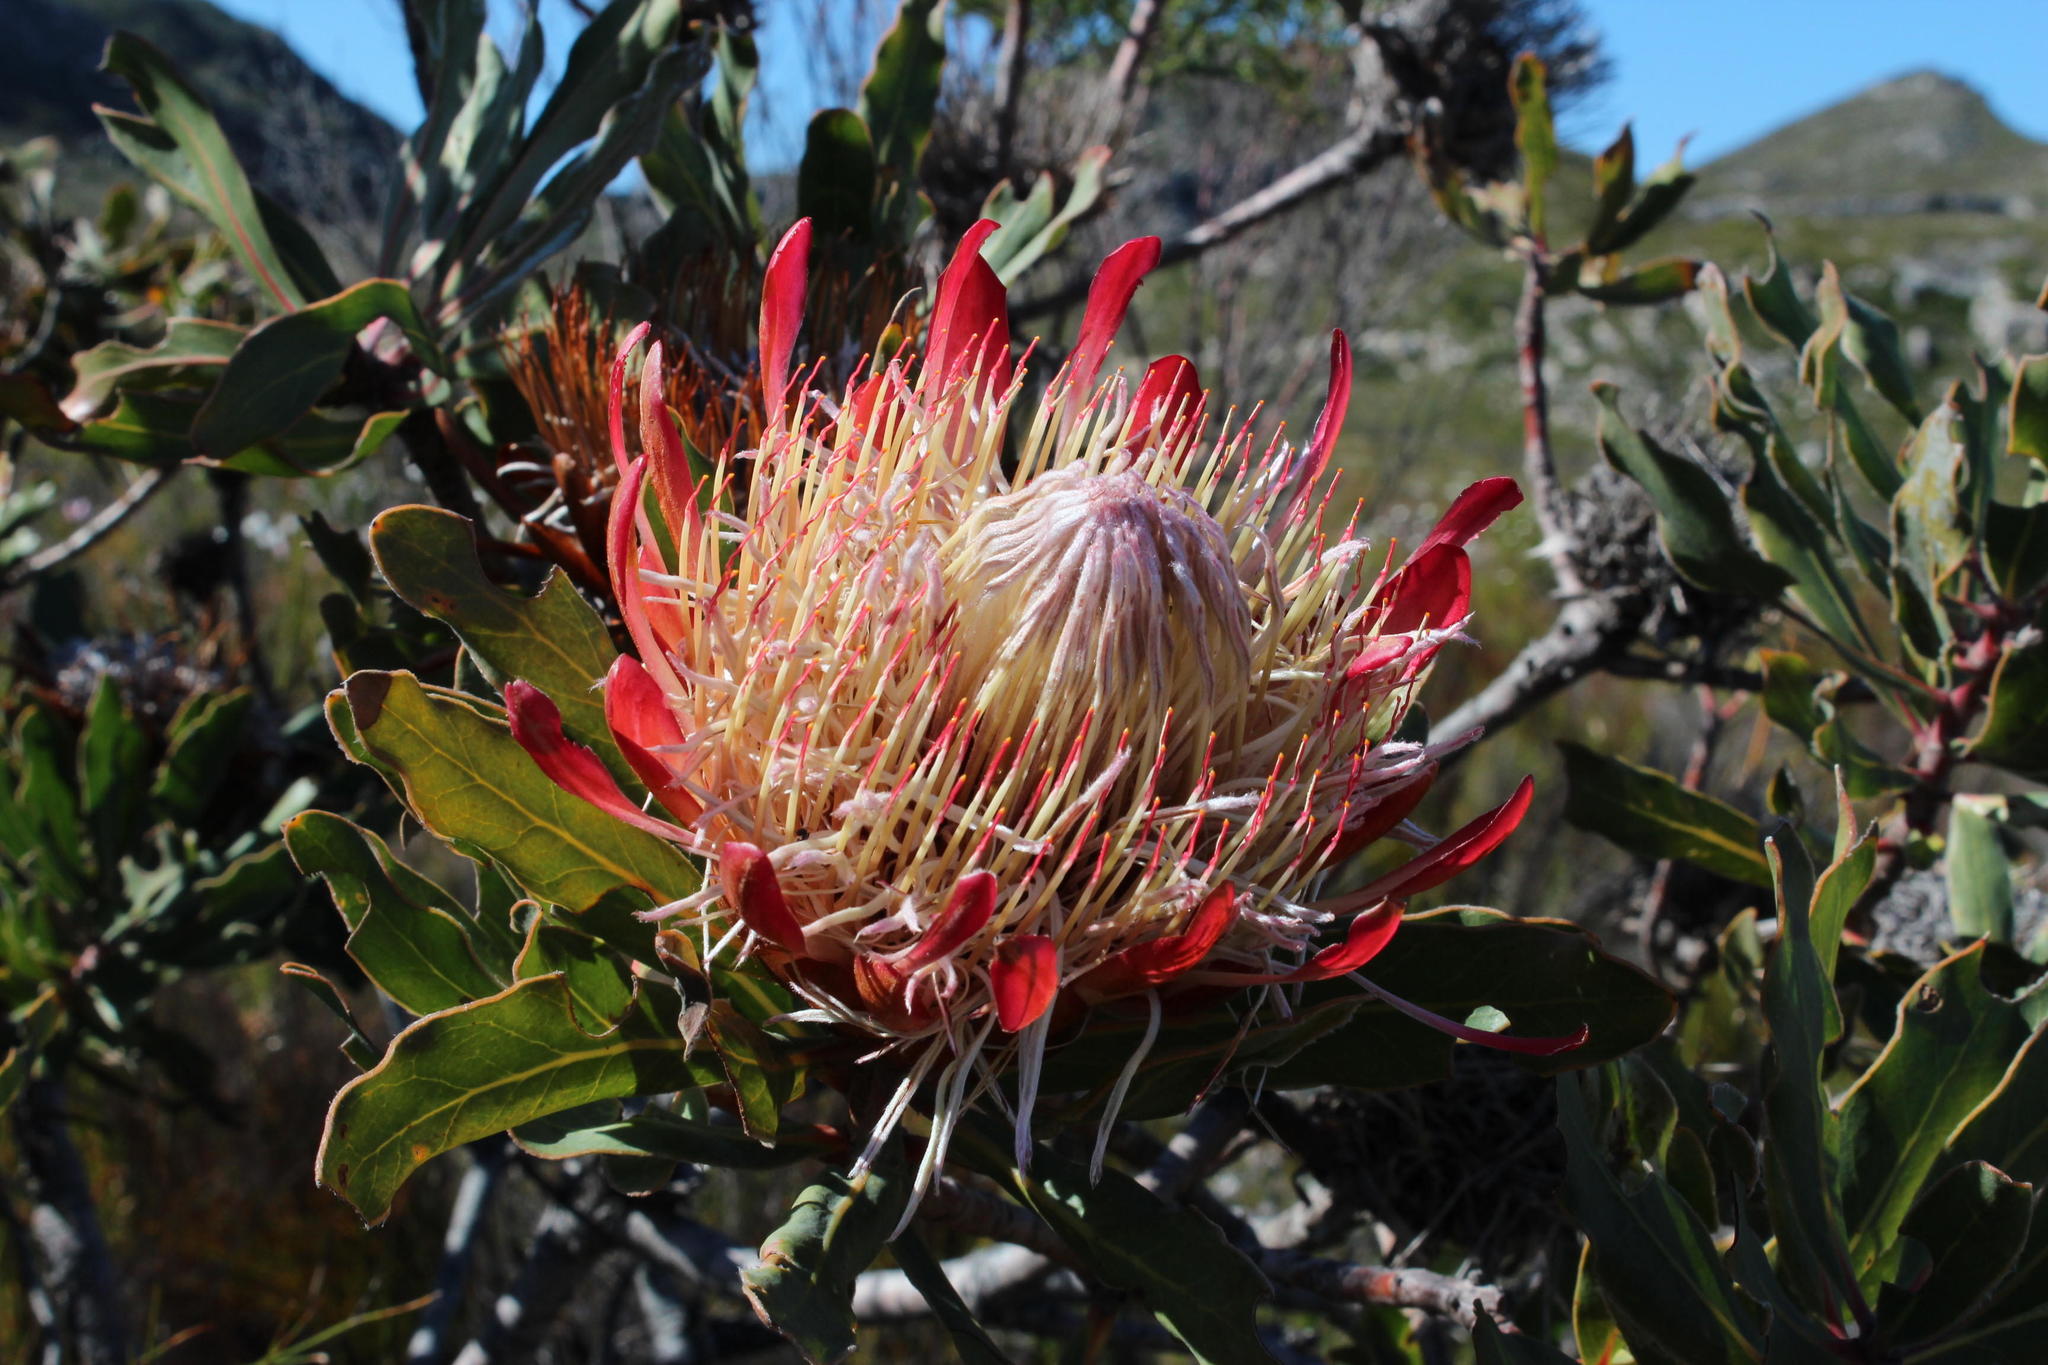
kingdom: Plantae
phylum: Tracheophyta
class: Magnoliopsida
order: Proteales
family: Proteaceae
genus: Protea
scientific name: Protea susannae
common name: Foetid-leaf sugarbush
